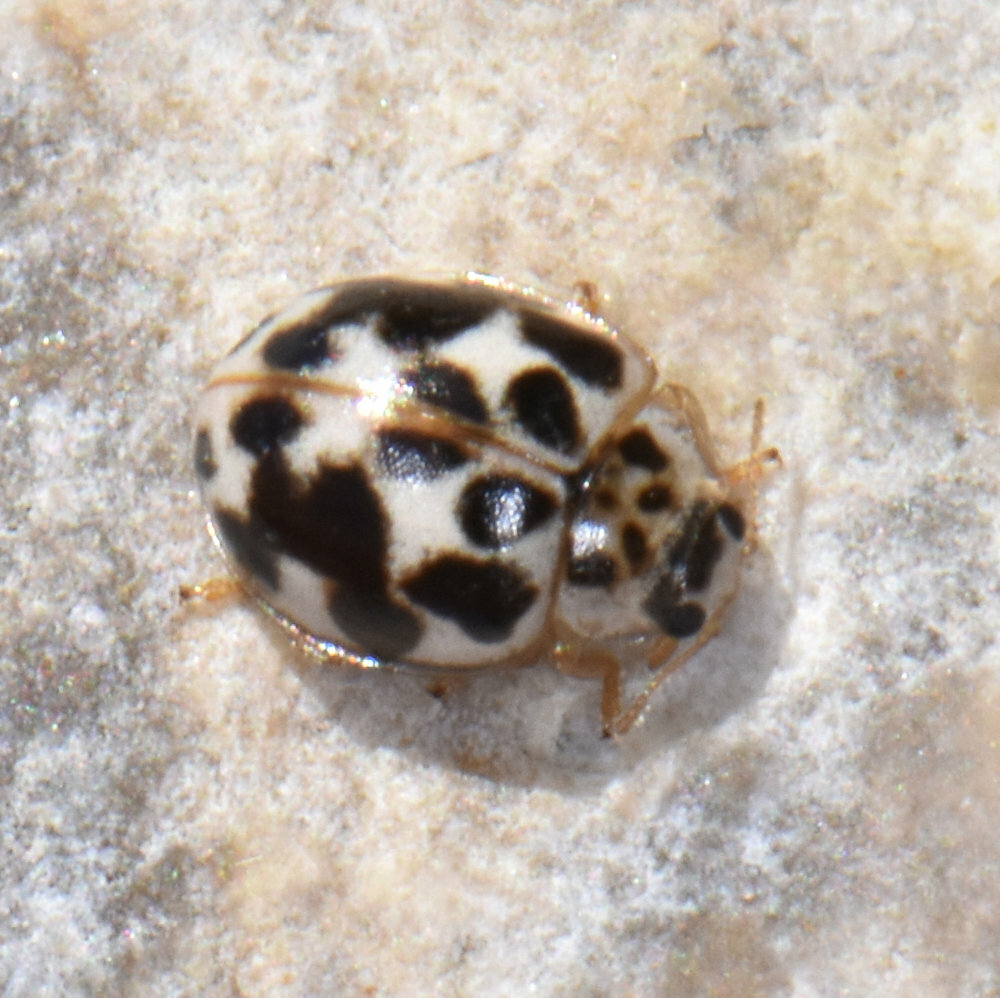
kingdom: Animalia
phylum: Arthropoda
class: Insecta
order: Coleoptera
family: Coccinellidae
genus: Psyllobora
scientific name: Psyllobora vigintimaculata
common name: Ladybird beetle
